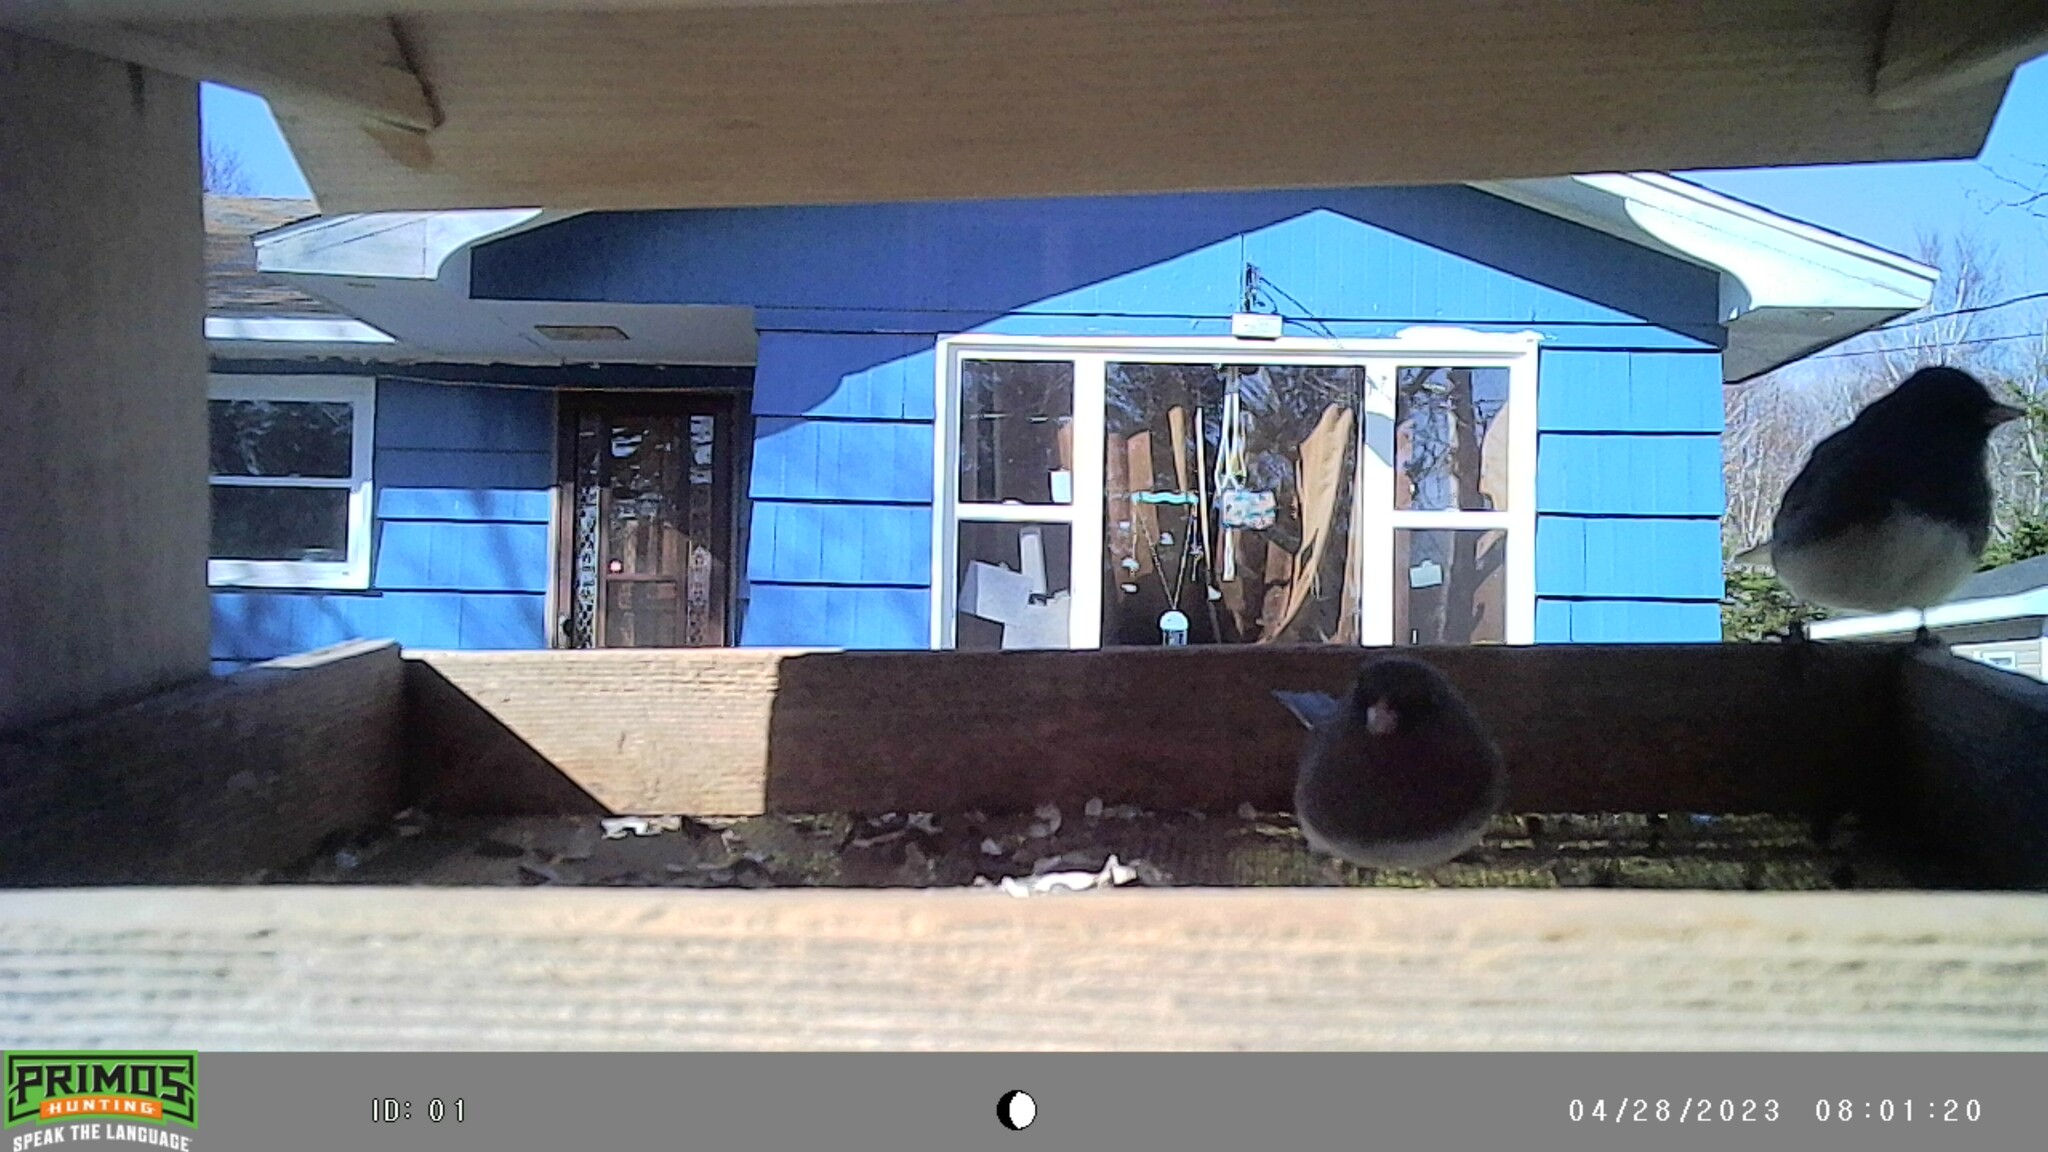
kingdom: Animalia
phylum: Chordata
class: Aves
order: Passeriformes
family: Passerellidae
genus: Junco
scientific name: Junco hyemalis
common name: Dark-eyed junco
